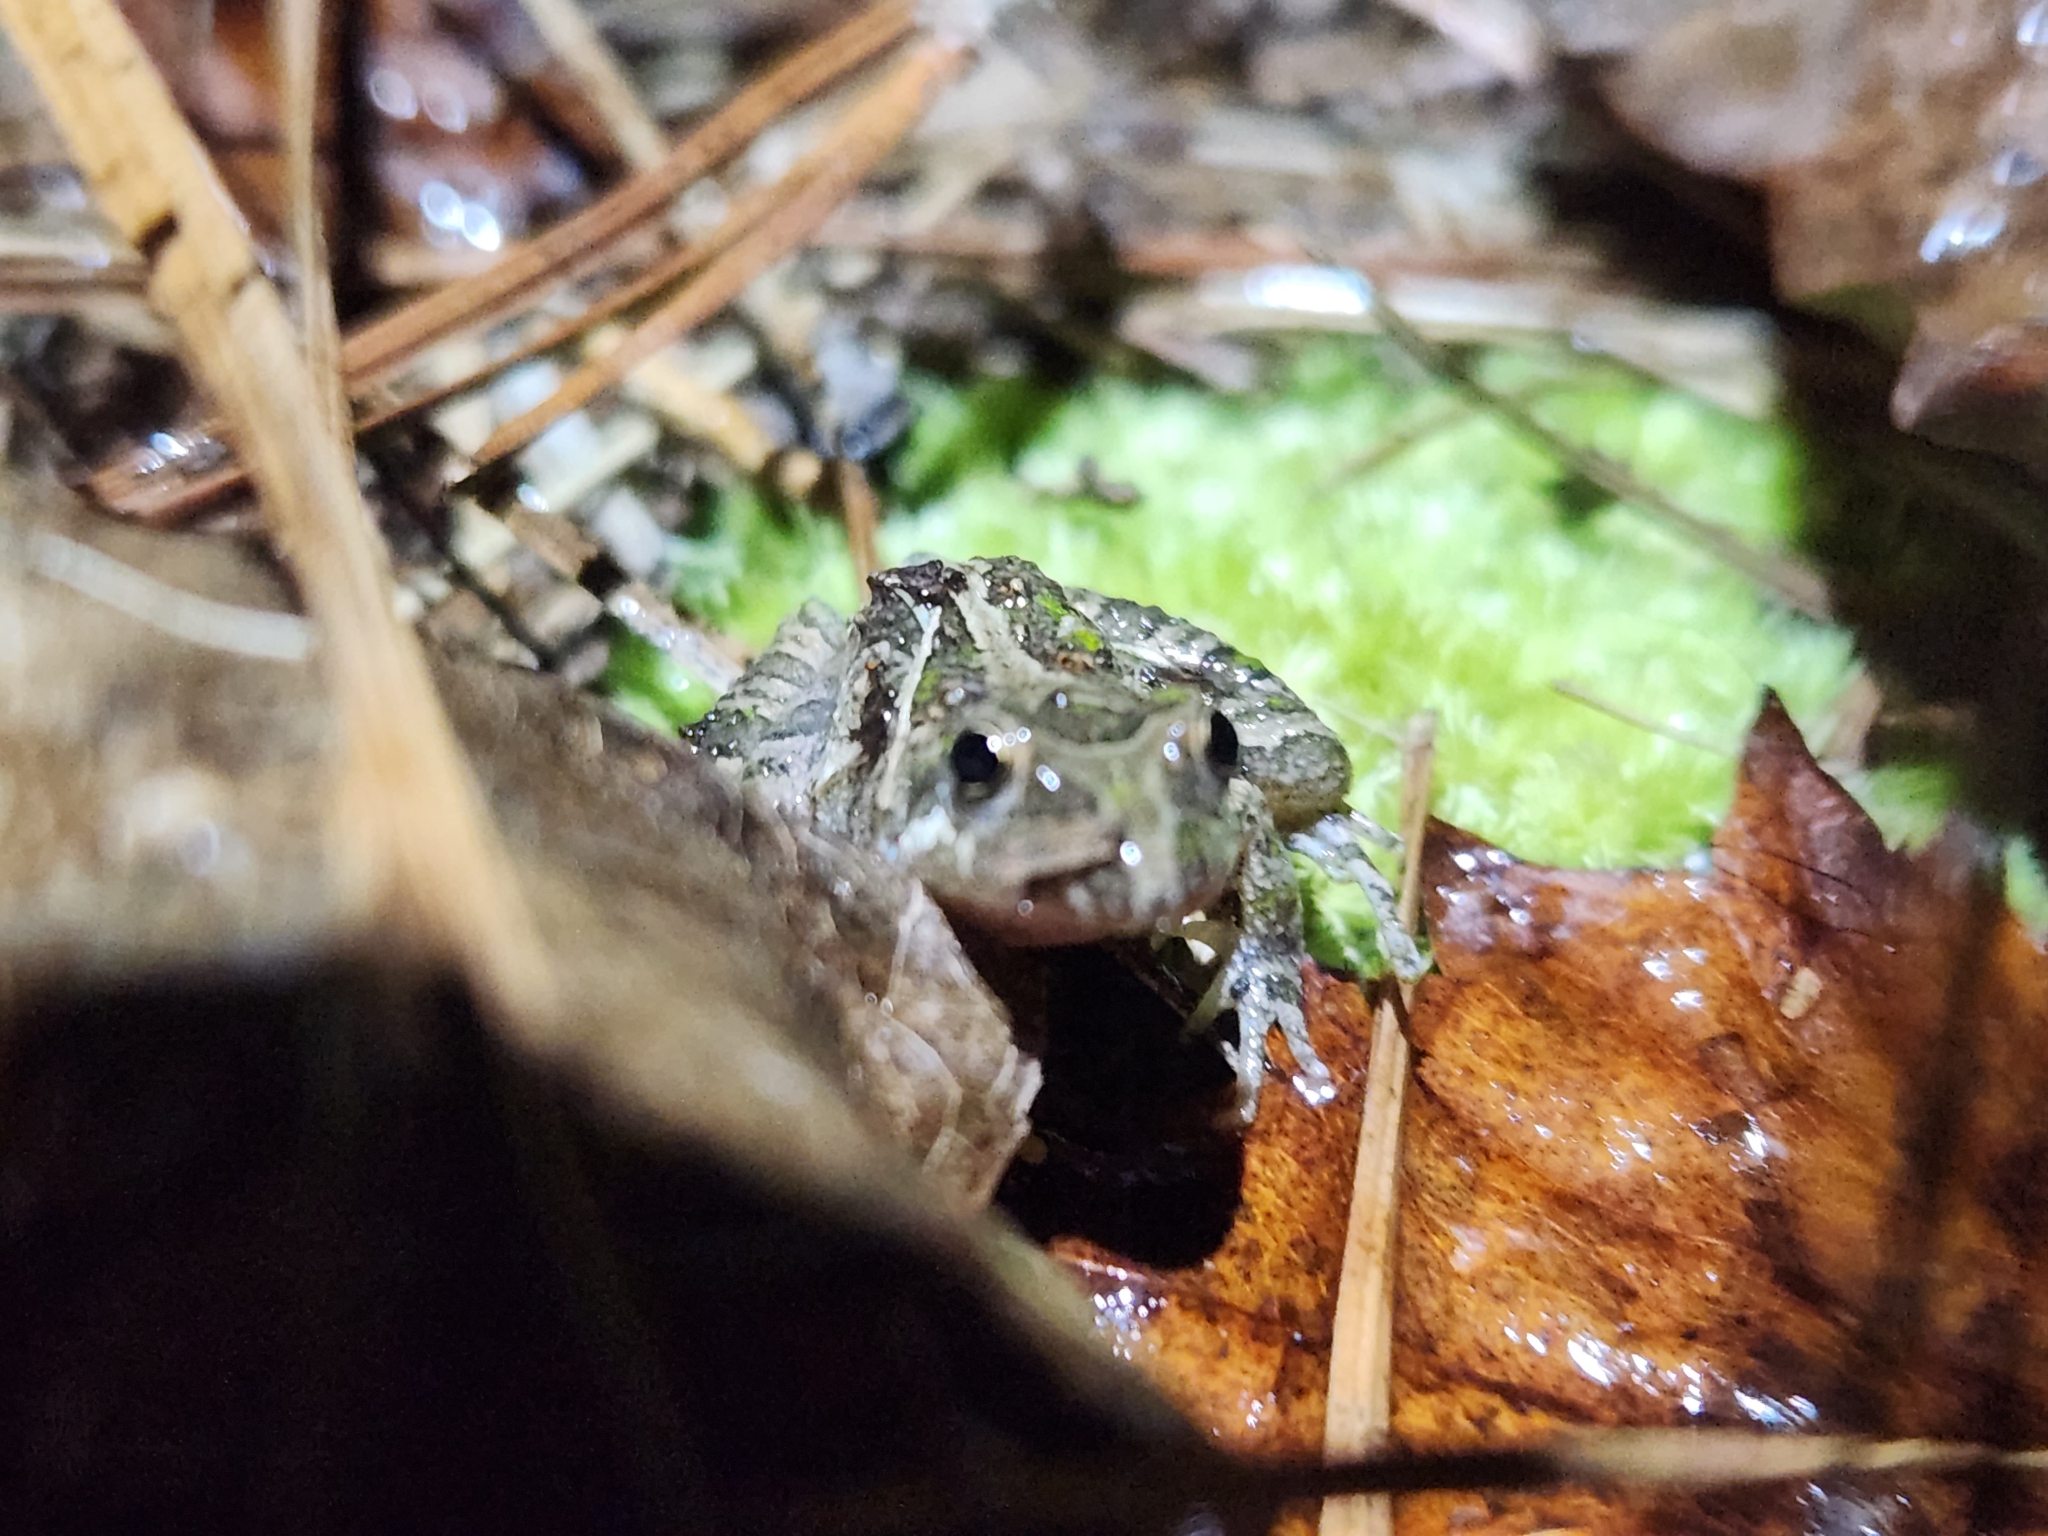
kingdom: Animalia
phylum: Chordata
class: Amphibia
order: Anura
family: Hylidae
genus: Acris
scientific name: Acris gryllus
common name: Southern cricket frog
